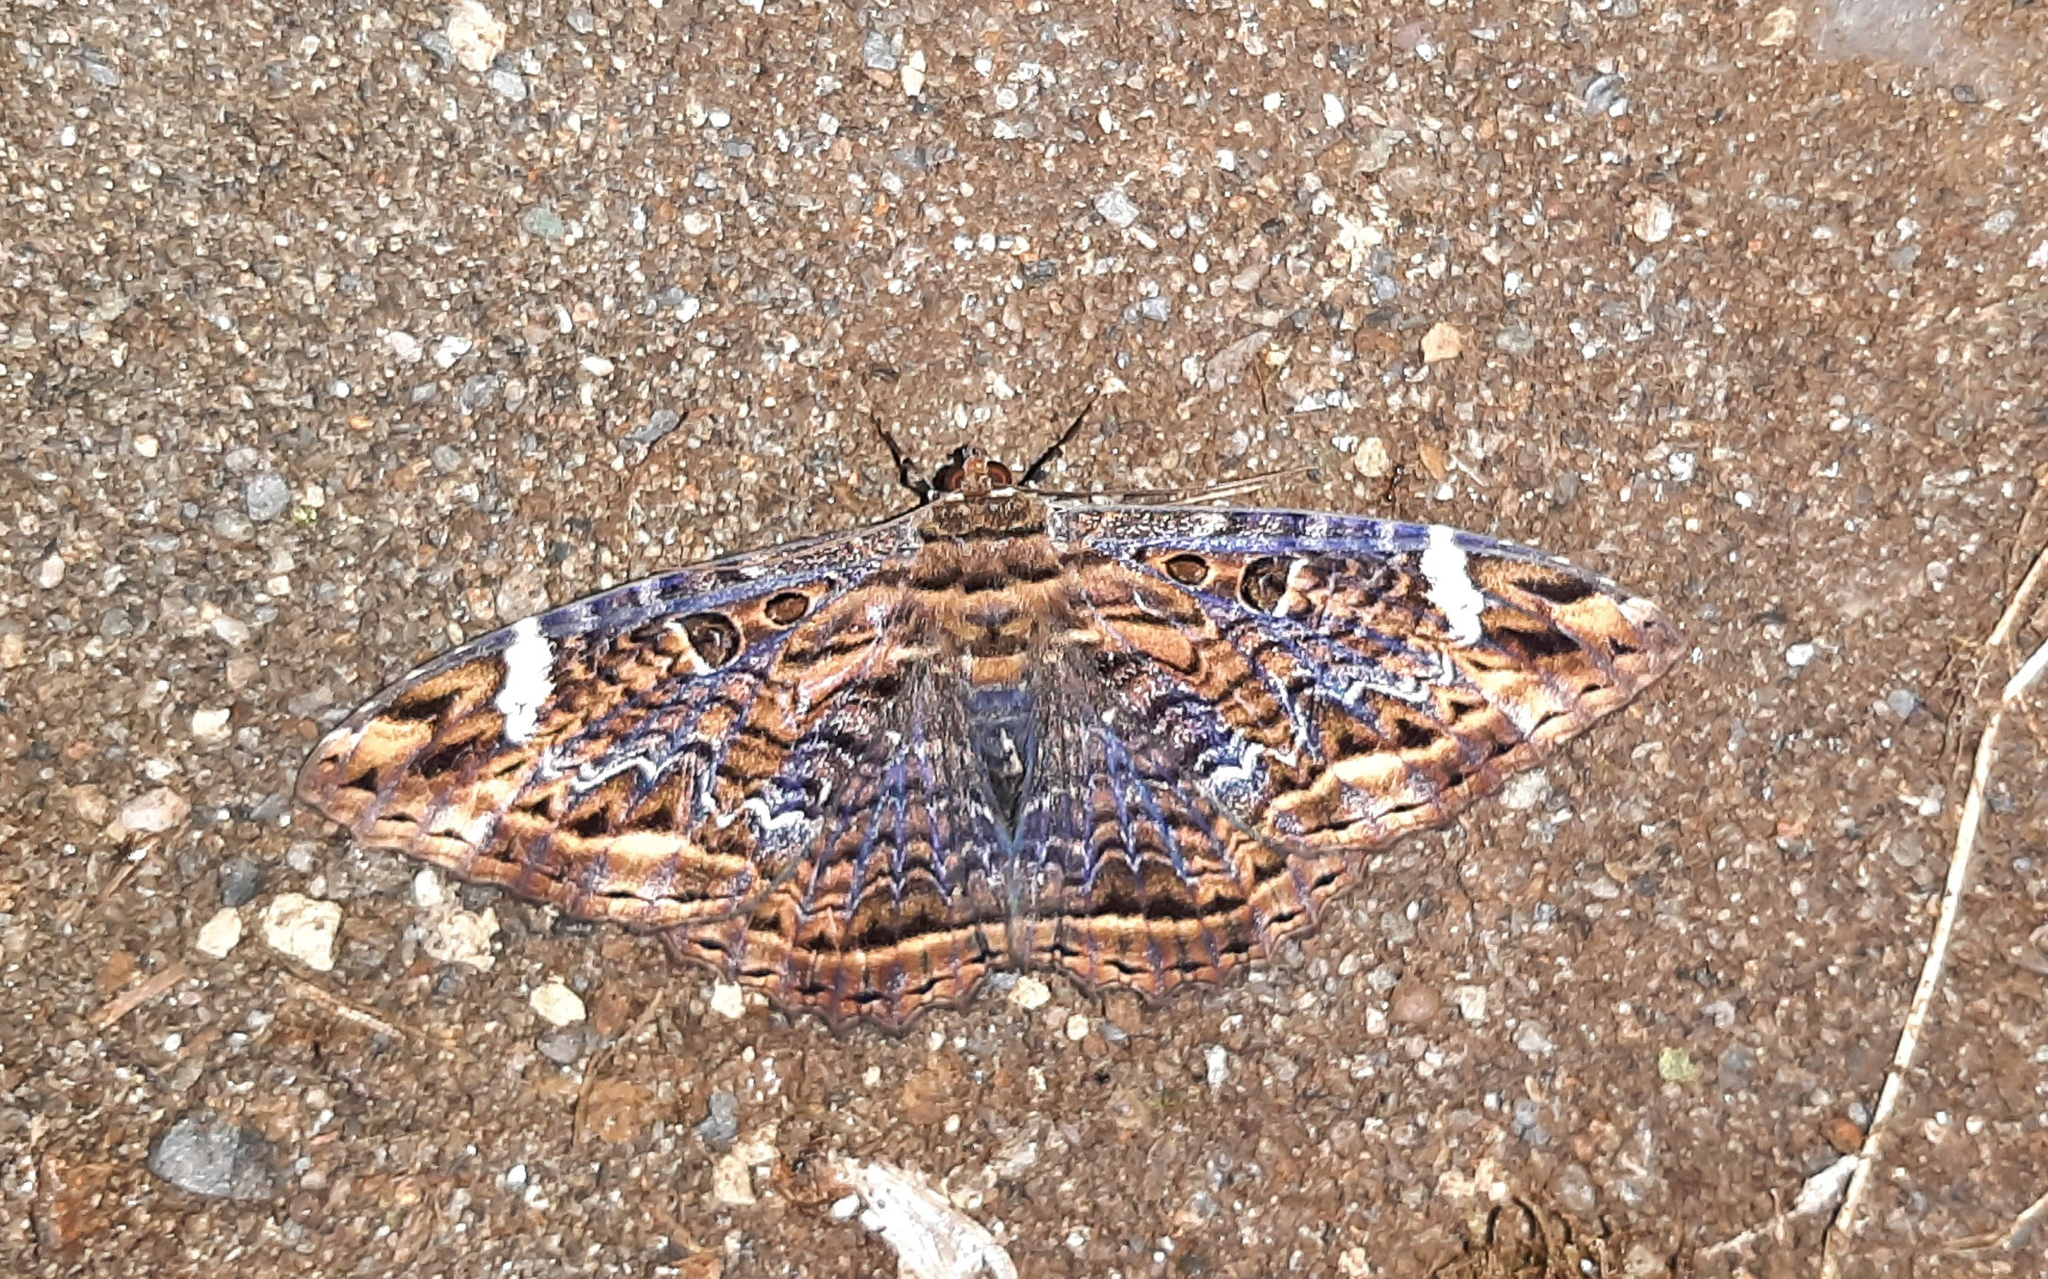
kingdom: Animalia
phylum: Arthropoda
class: Insecta
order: Lepidoptera
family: Noctuidae
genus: Ronania
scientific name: Ronania
